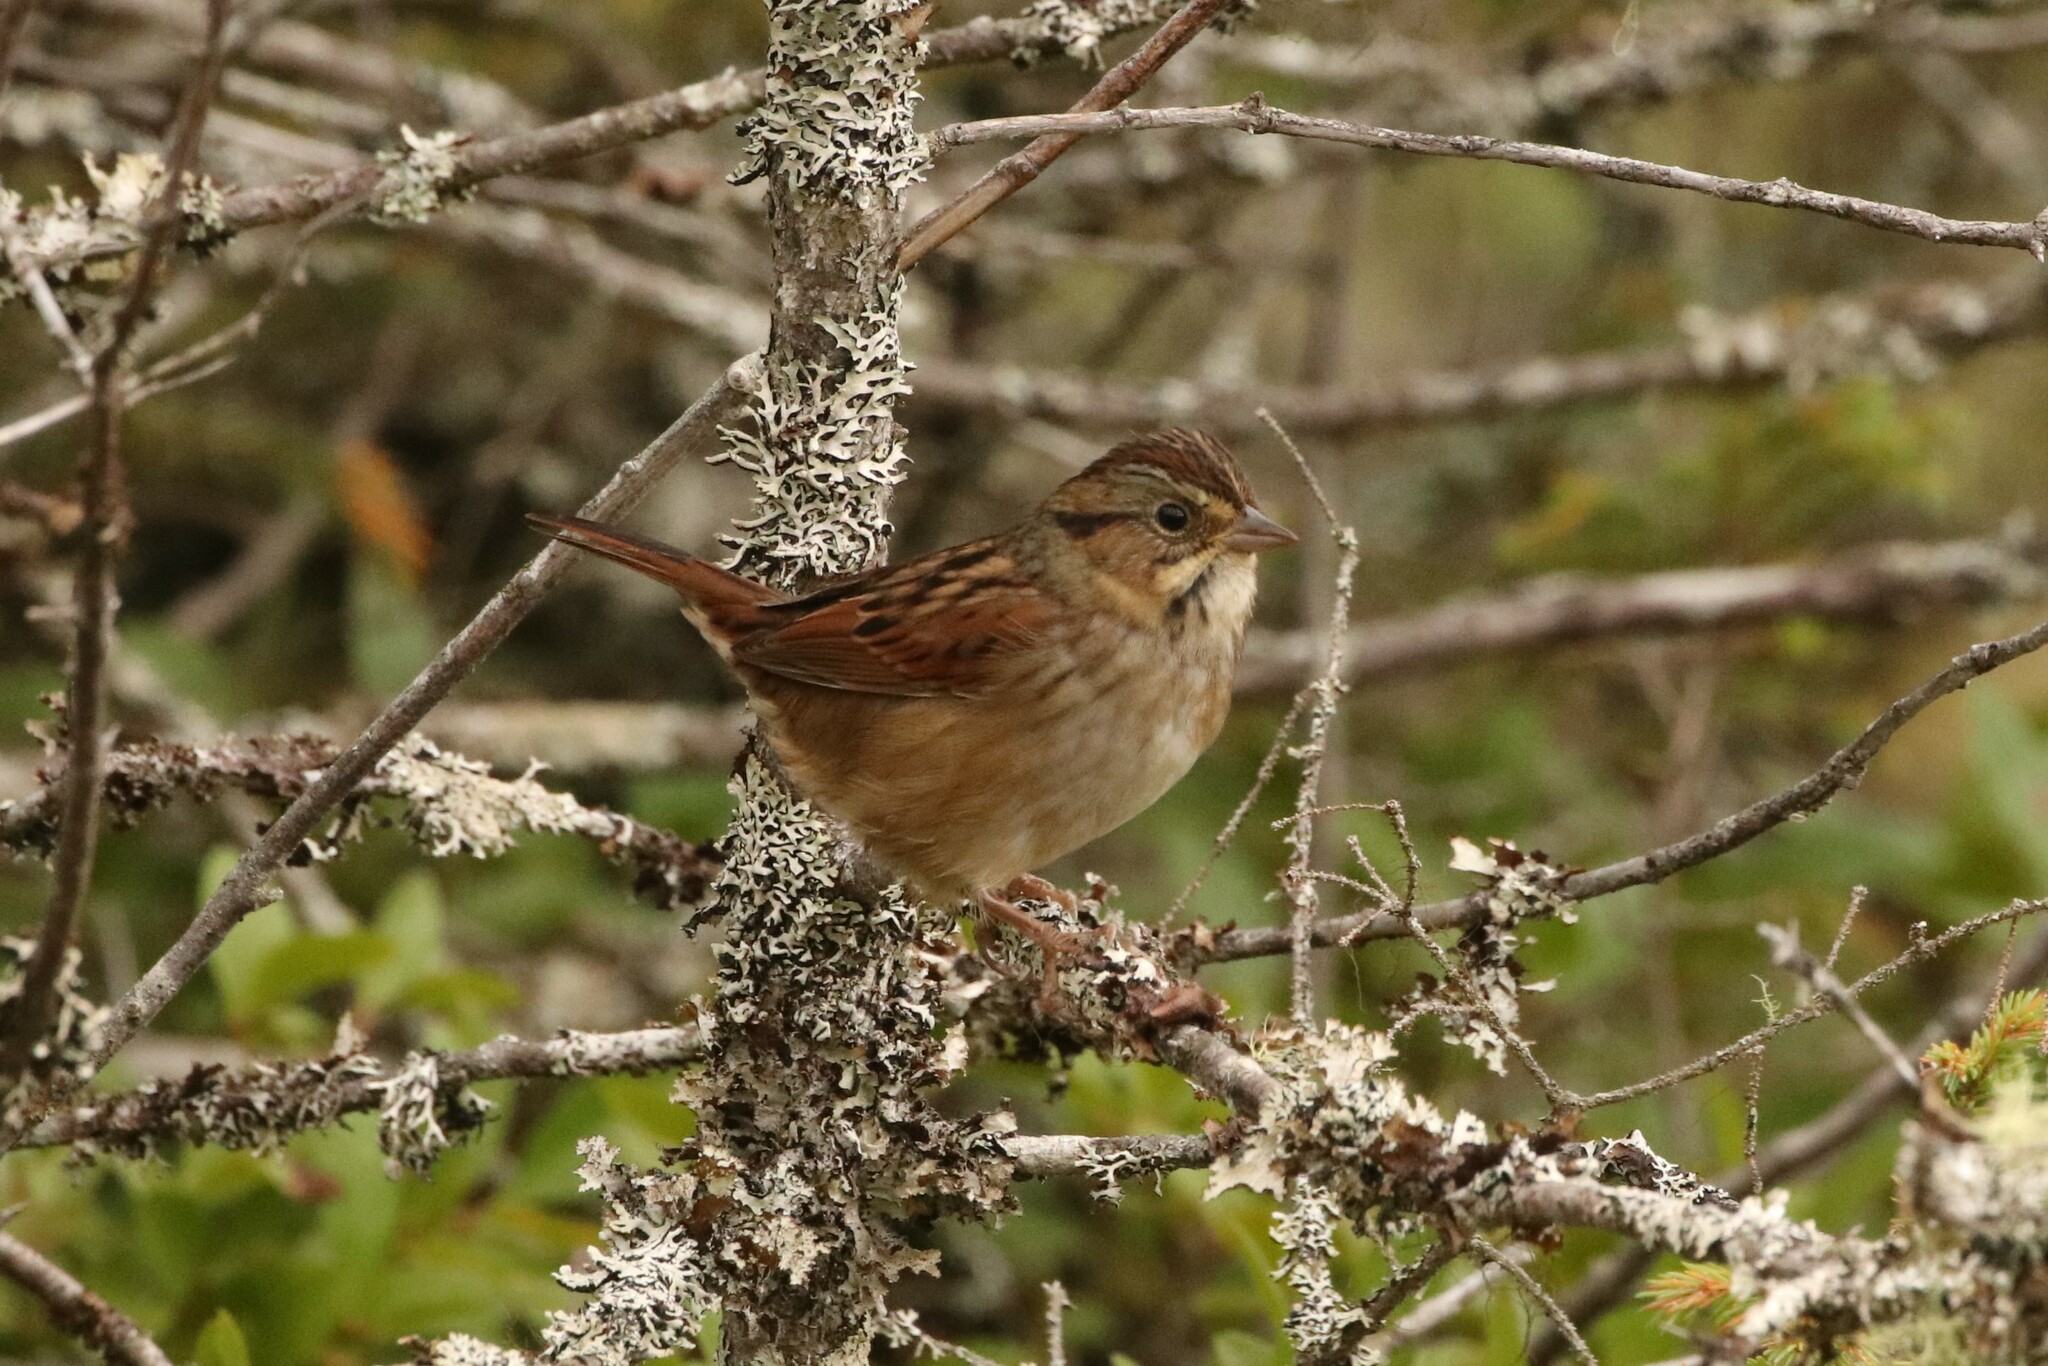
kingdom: Animalia
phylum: Chordata
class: Aves
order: Passeriformes
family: Passerellidae
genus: Melospiza
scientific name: Melospiza georgiana
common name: Swamp sparrow
